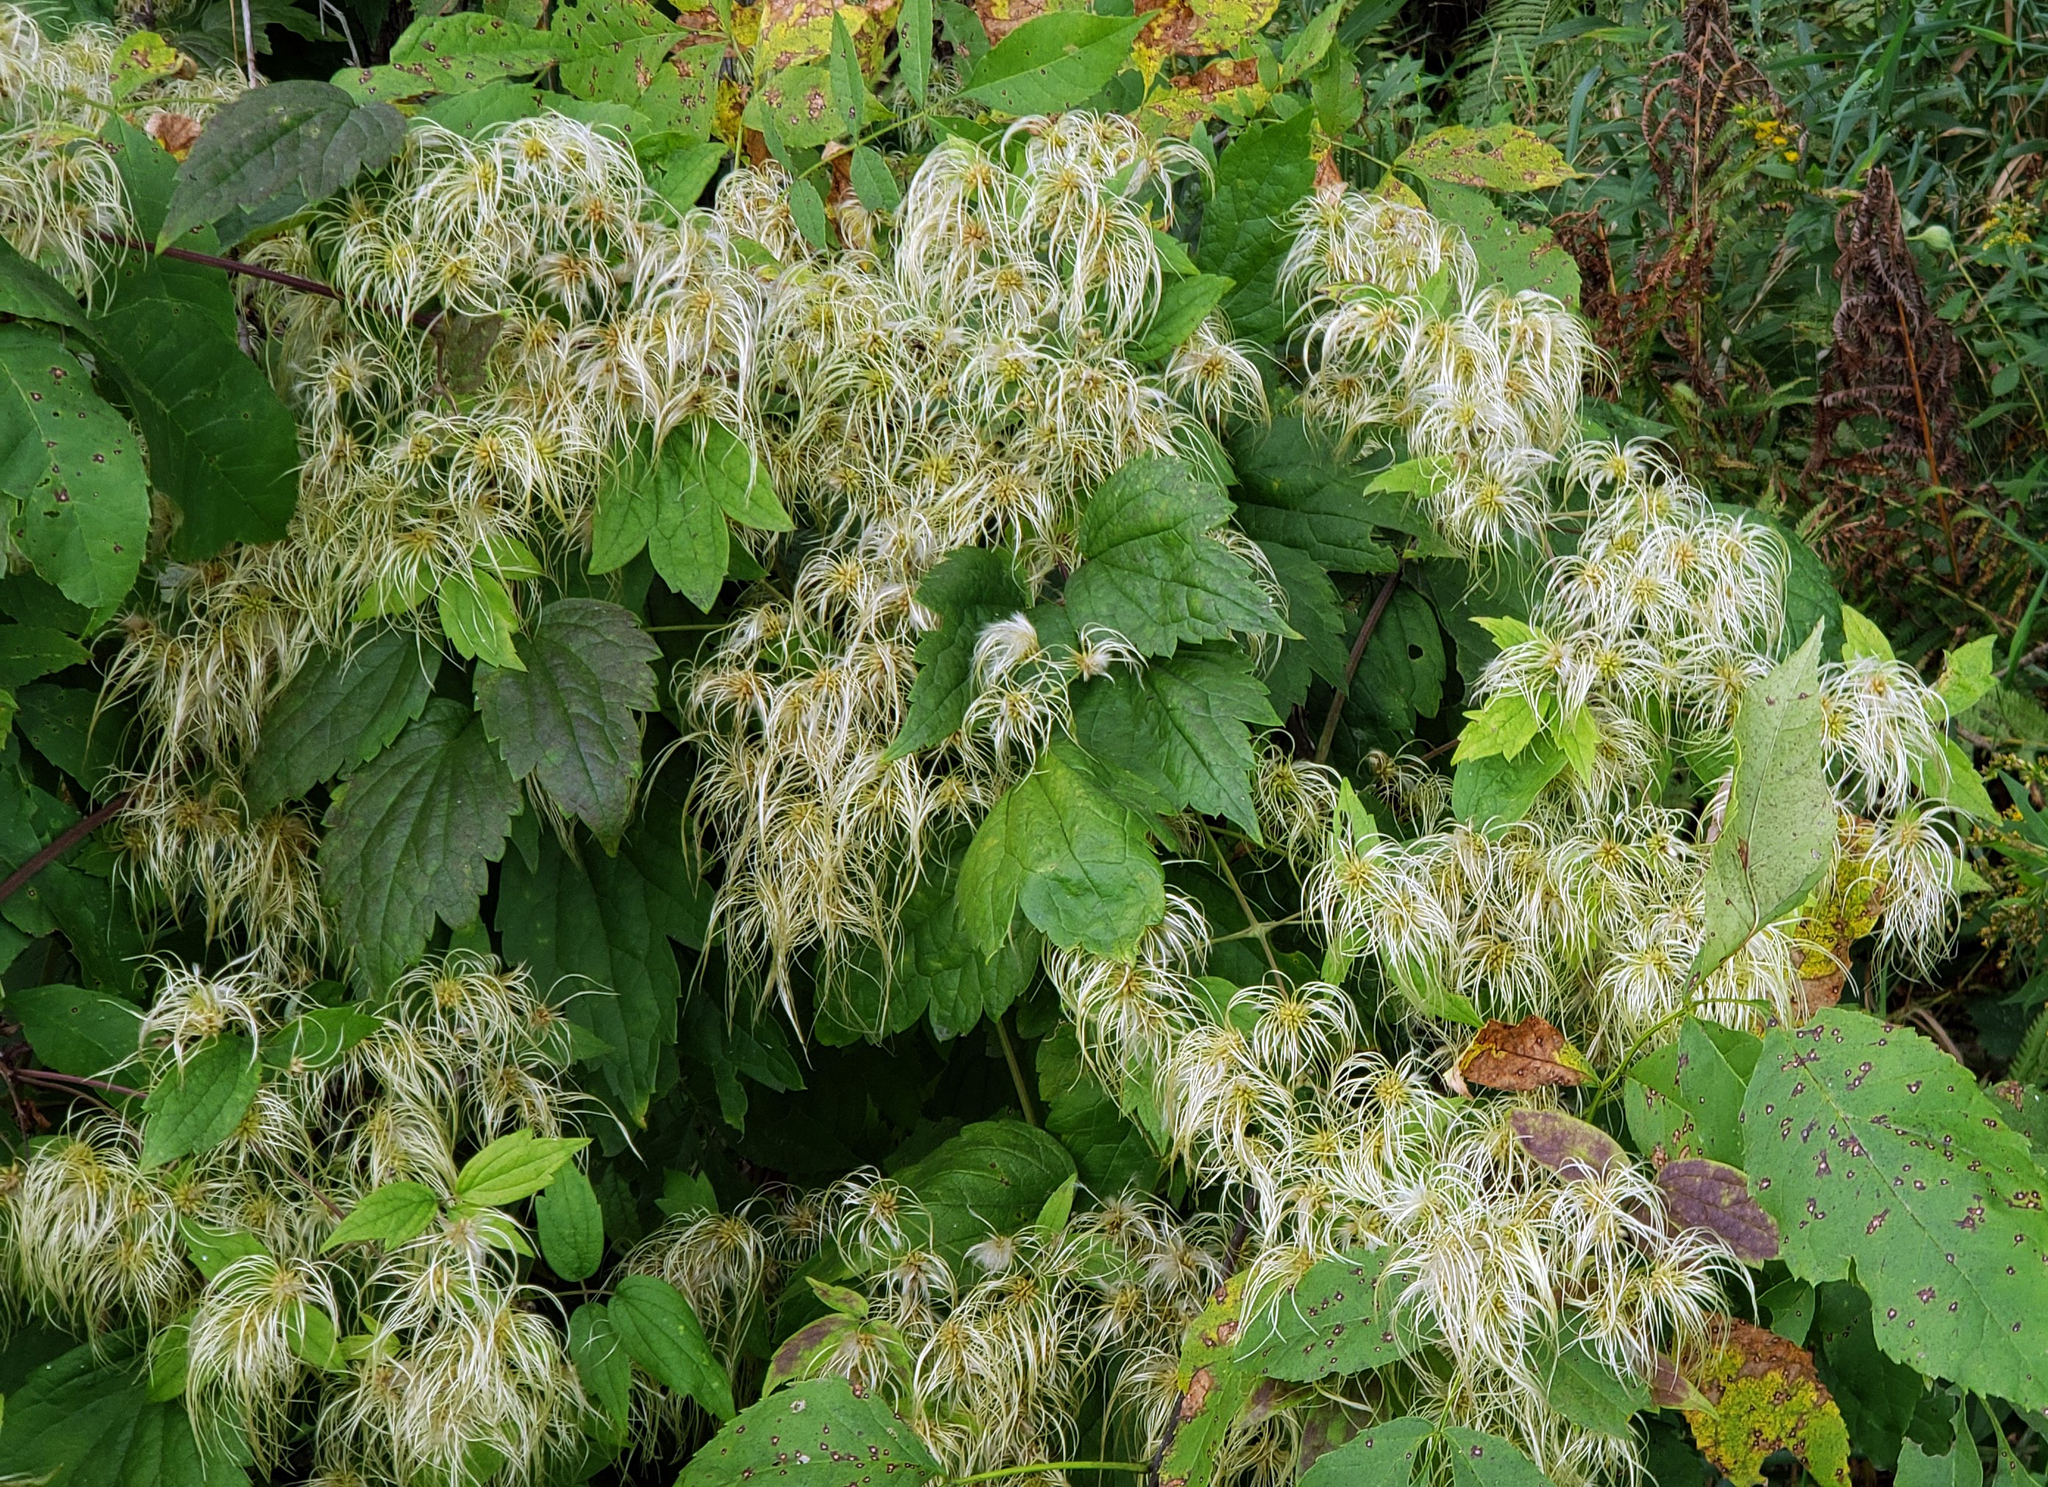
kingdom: Plantae
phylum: Tracheophyta
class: Magnoliopsida
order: Ranunculales
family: Ranunculaceae
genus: Clematis
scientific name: Clematis virginiana
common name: Virgin's-bower
